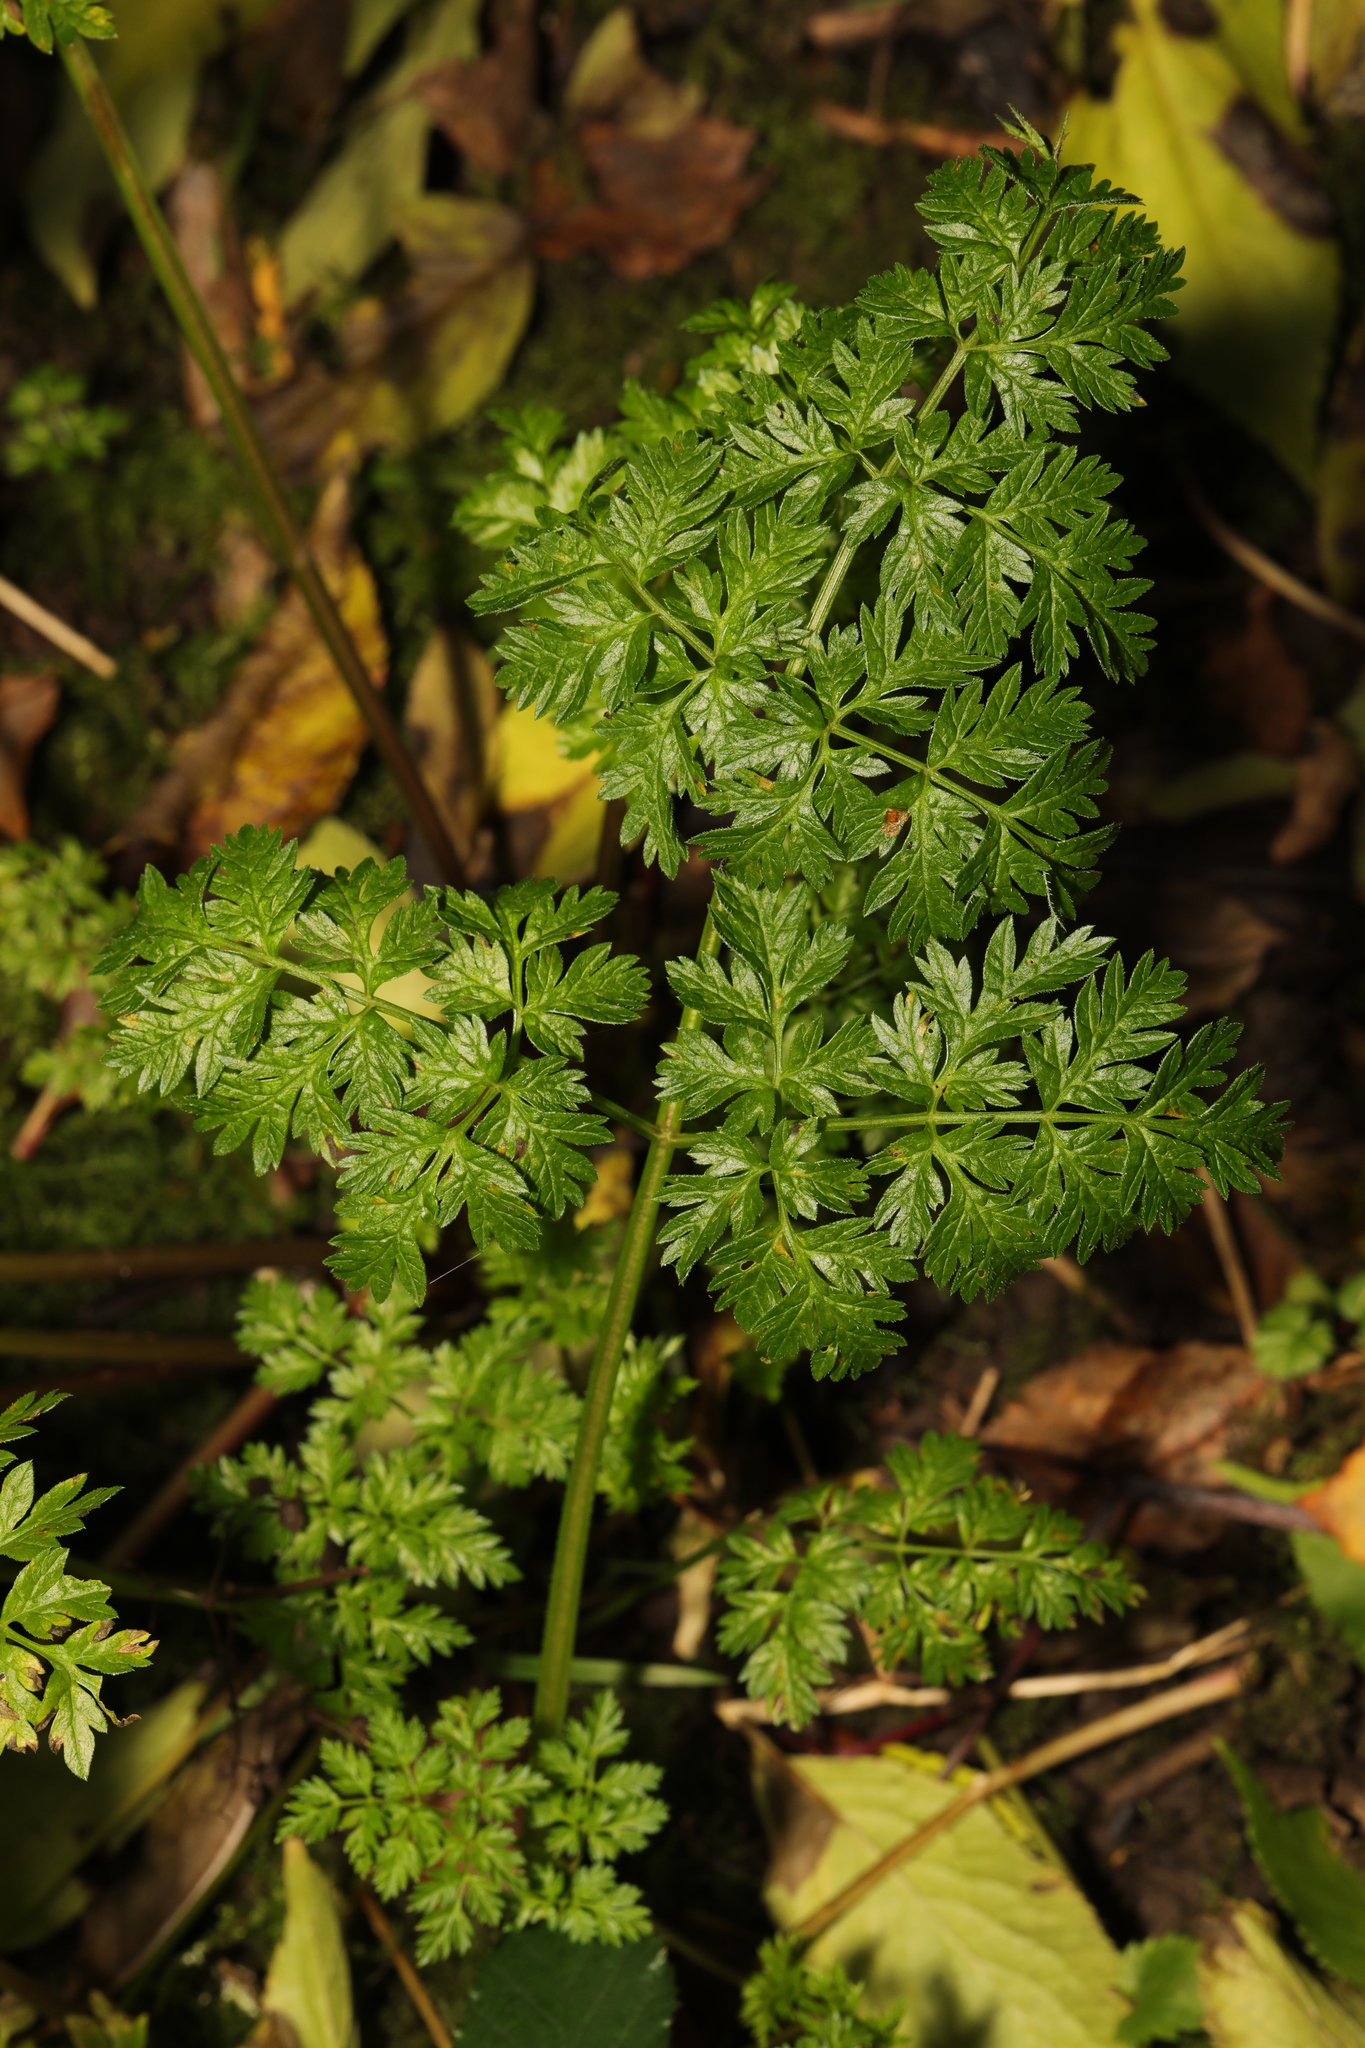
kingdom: Plantae
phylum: Tracheophyta
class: Magnoliopsida
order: Apiales
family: Apiaceae
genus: Anthriscus
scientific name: Anthriscus sylvestris
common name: Cow parsley
